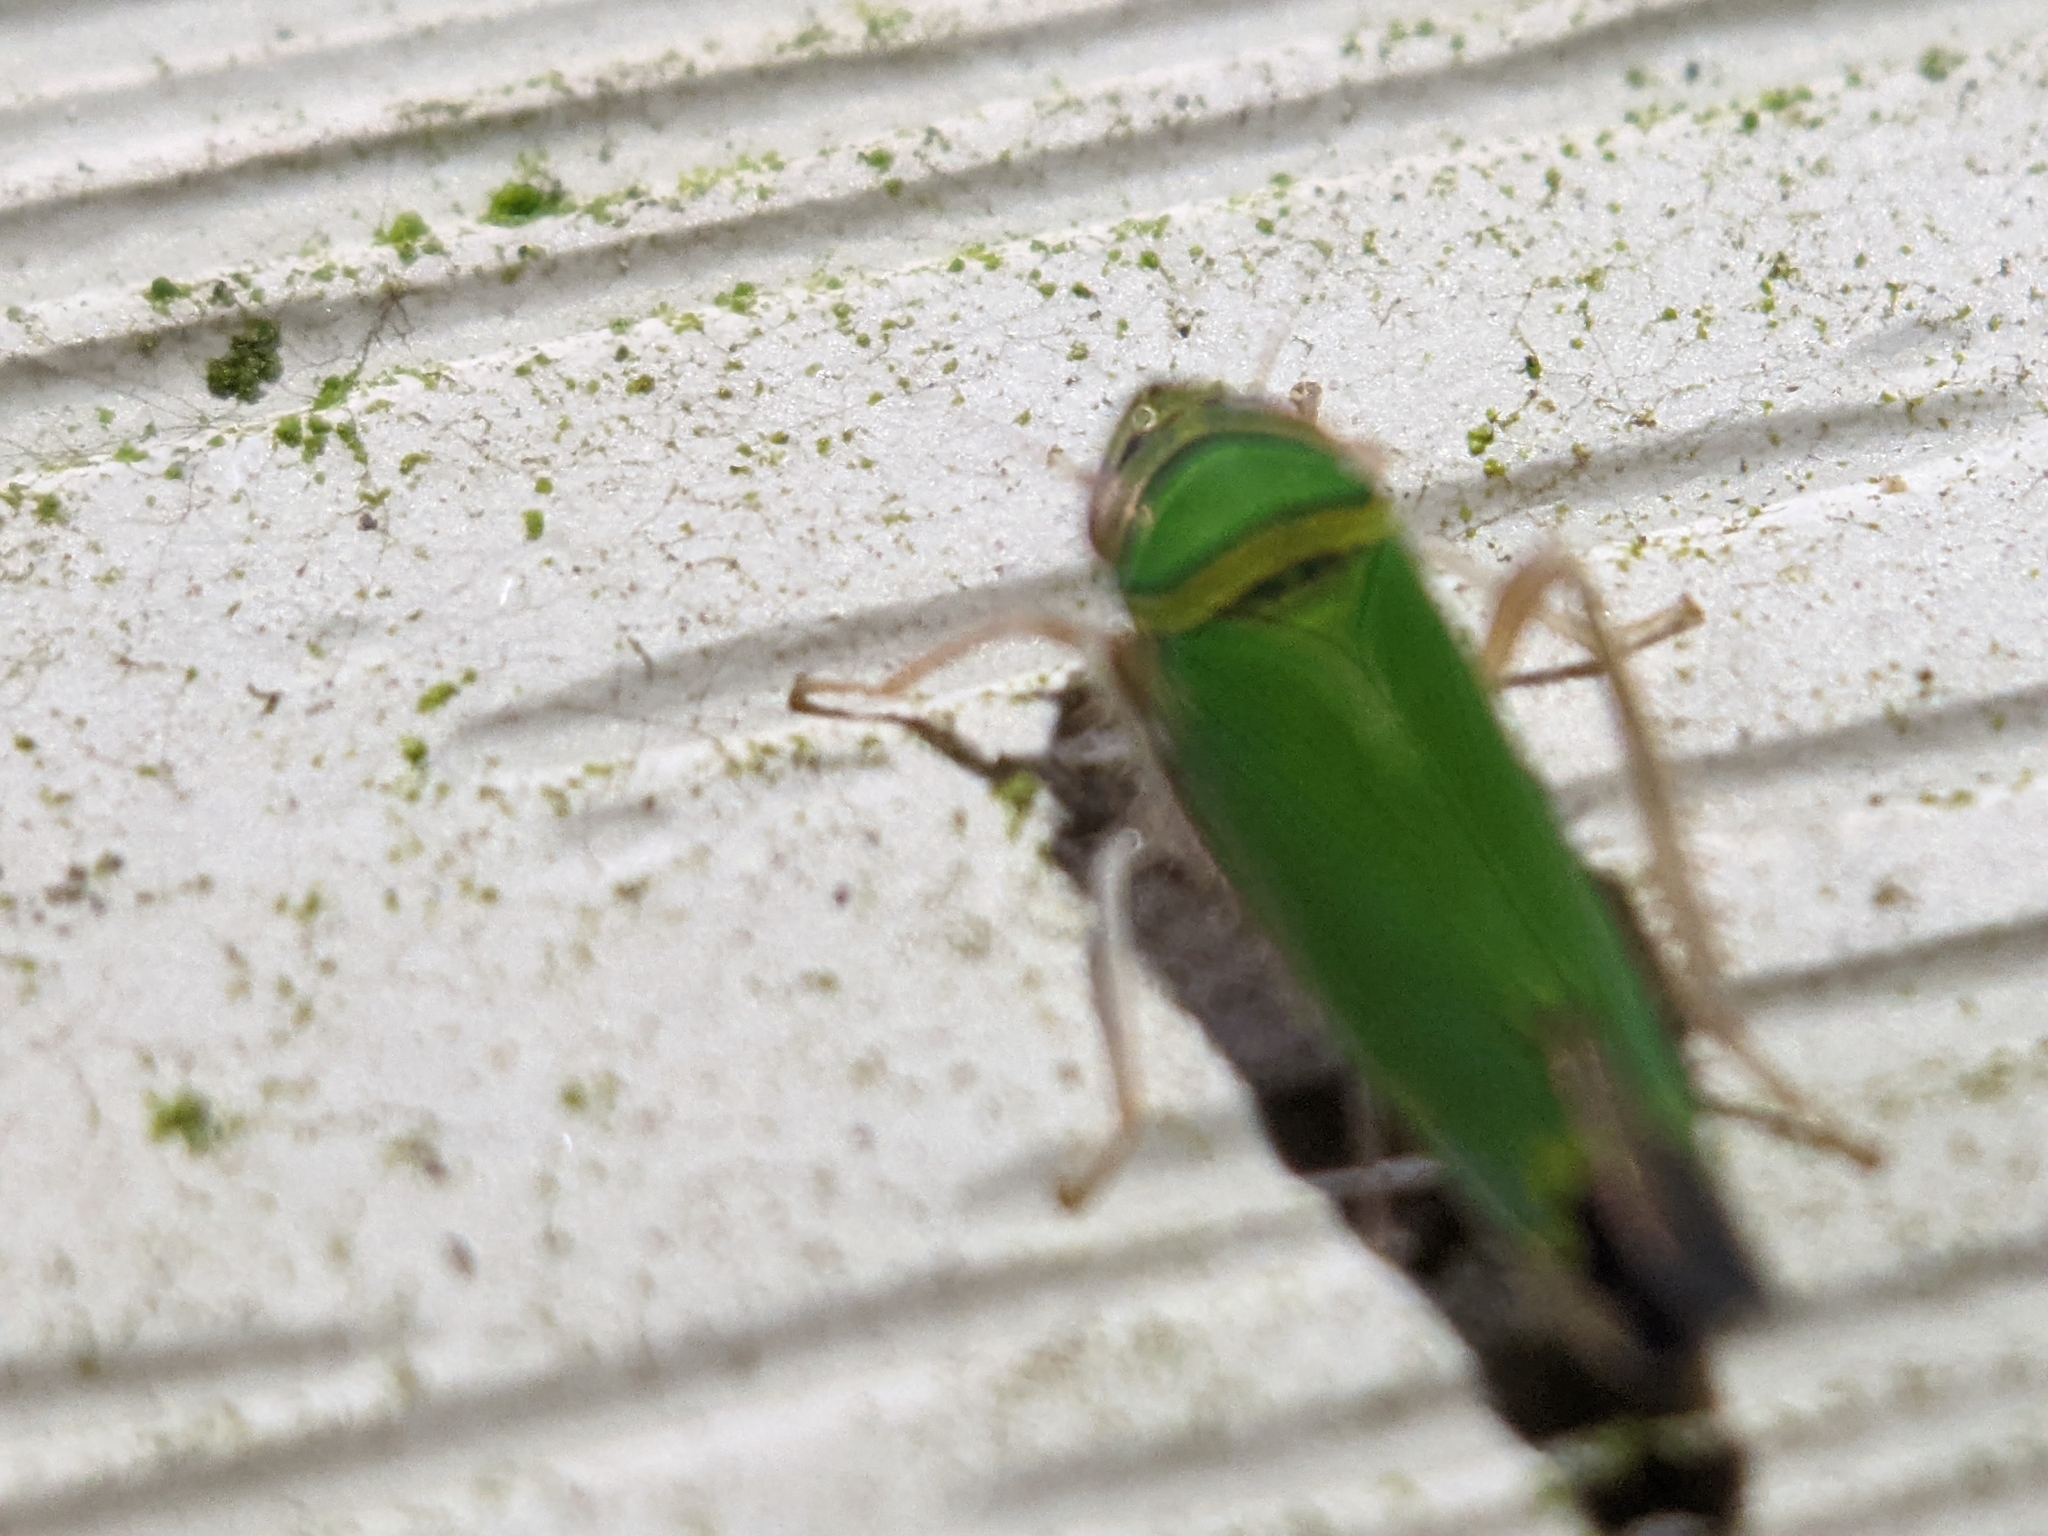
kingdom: Animalia
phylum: Arthropoda
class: Insecta
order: Hemiptera
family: Cicadellidae
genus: Tylozygus
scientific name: Tylozygus geometricus
